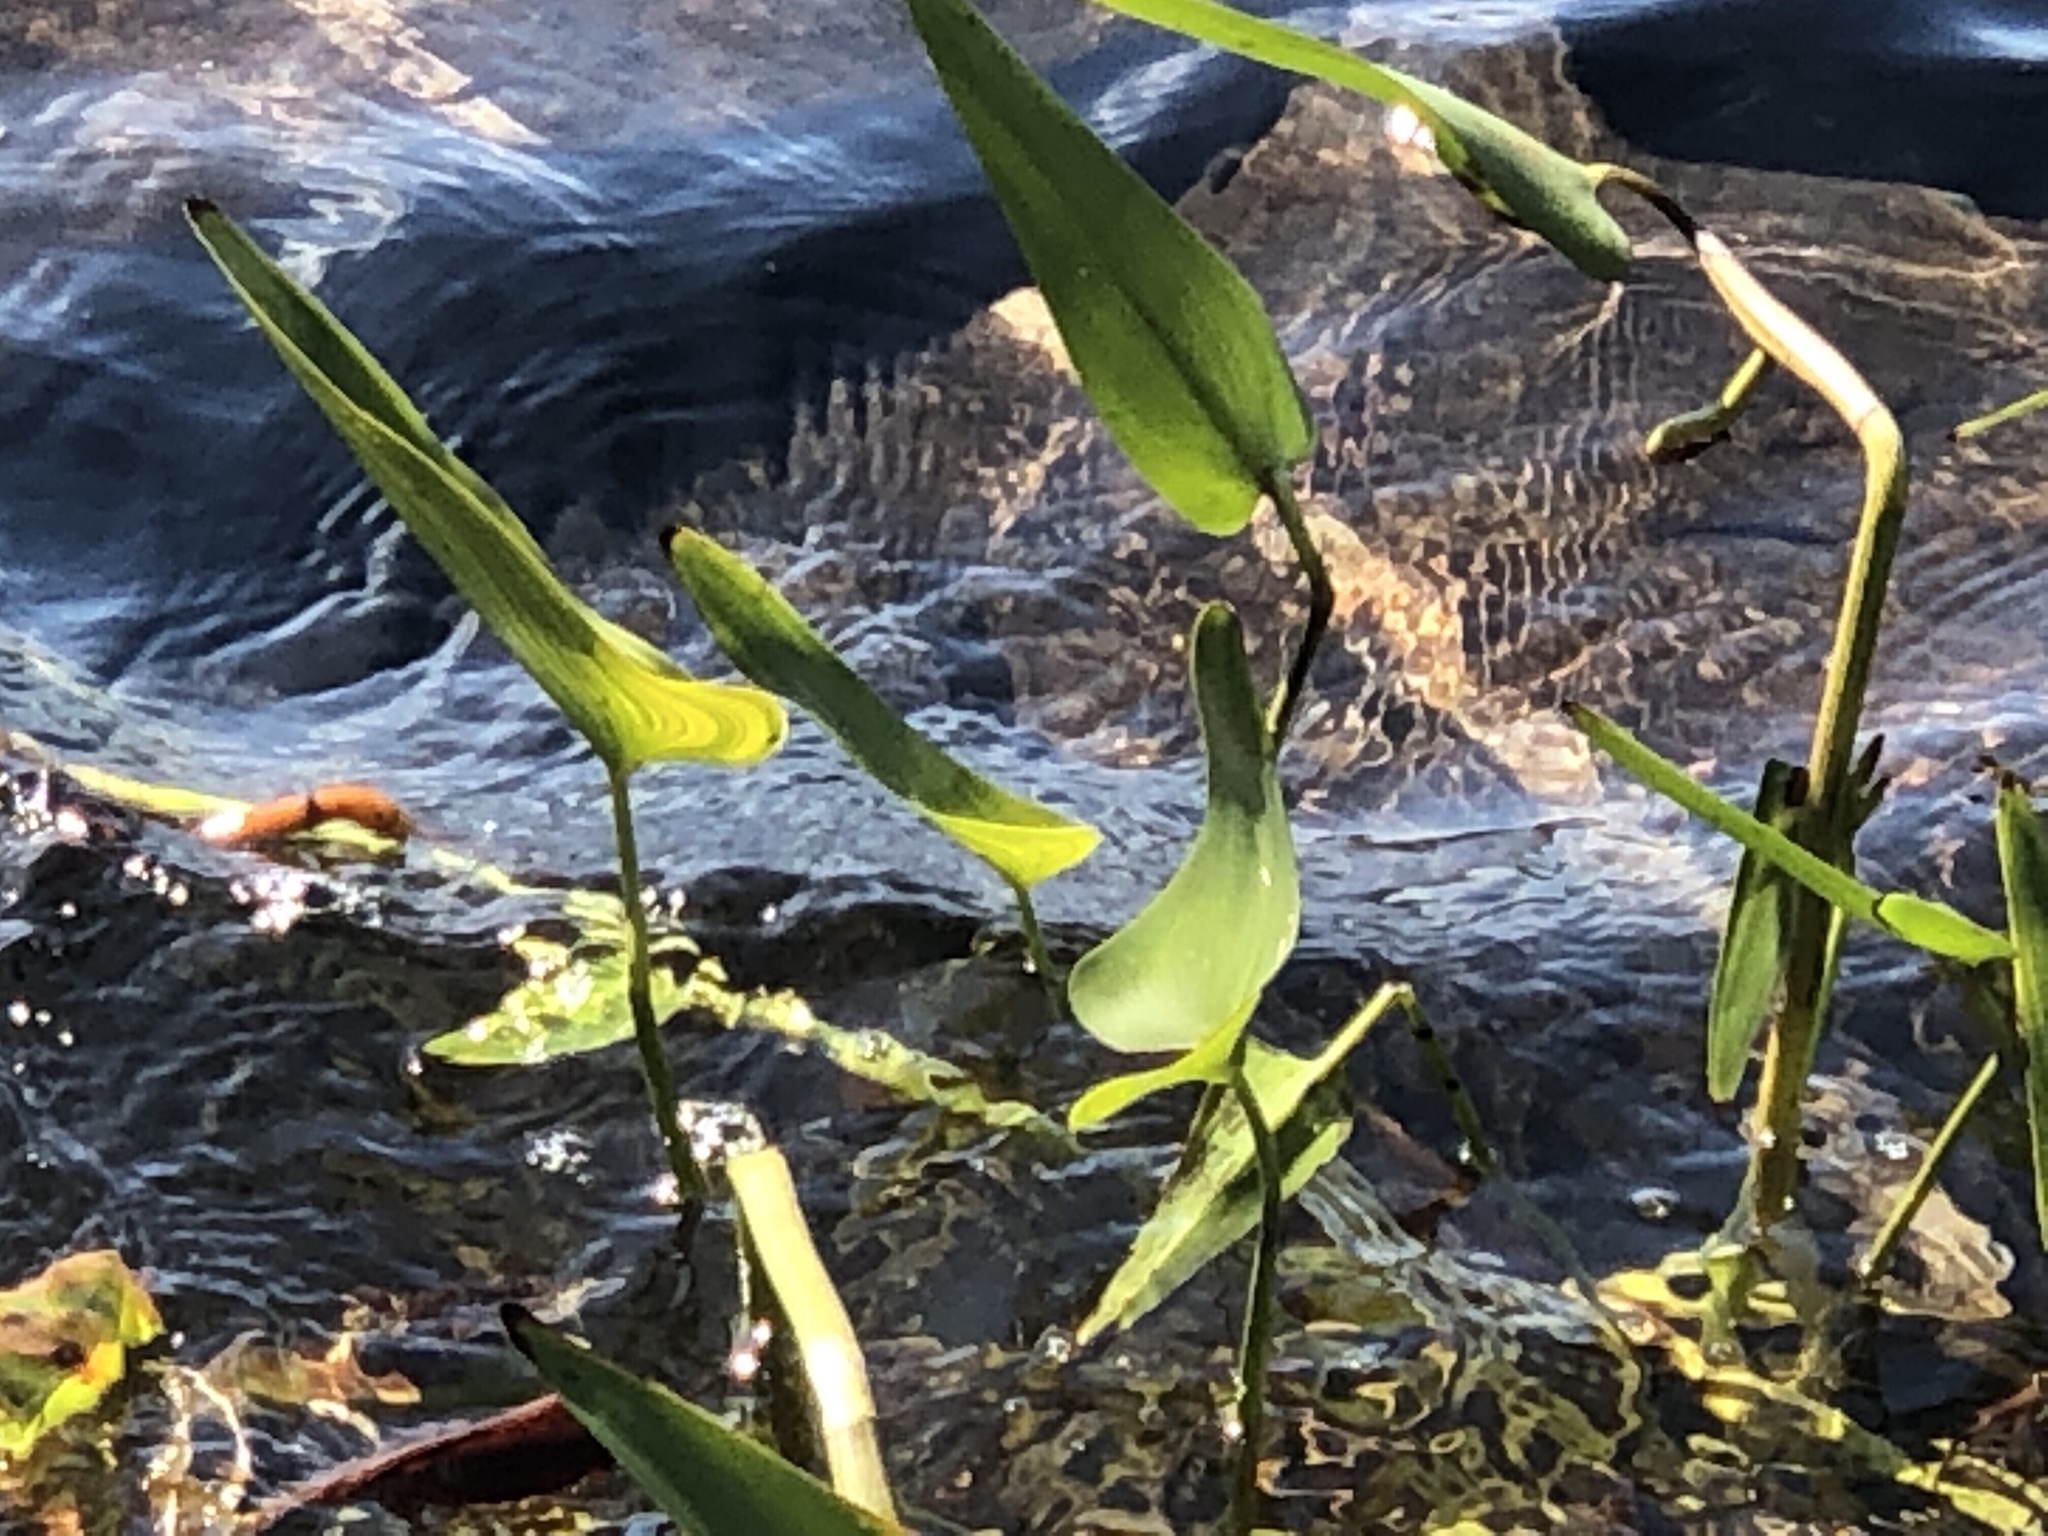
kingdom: Plantae
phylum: Tracheophyta
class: Liliopsida
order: Commelinales
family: Pontederiaceae
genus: Pontederia
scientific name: Pontederia cordata
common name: Pickerelweed
